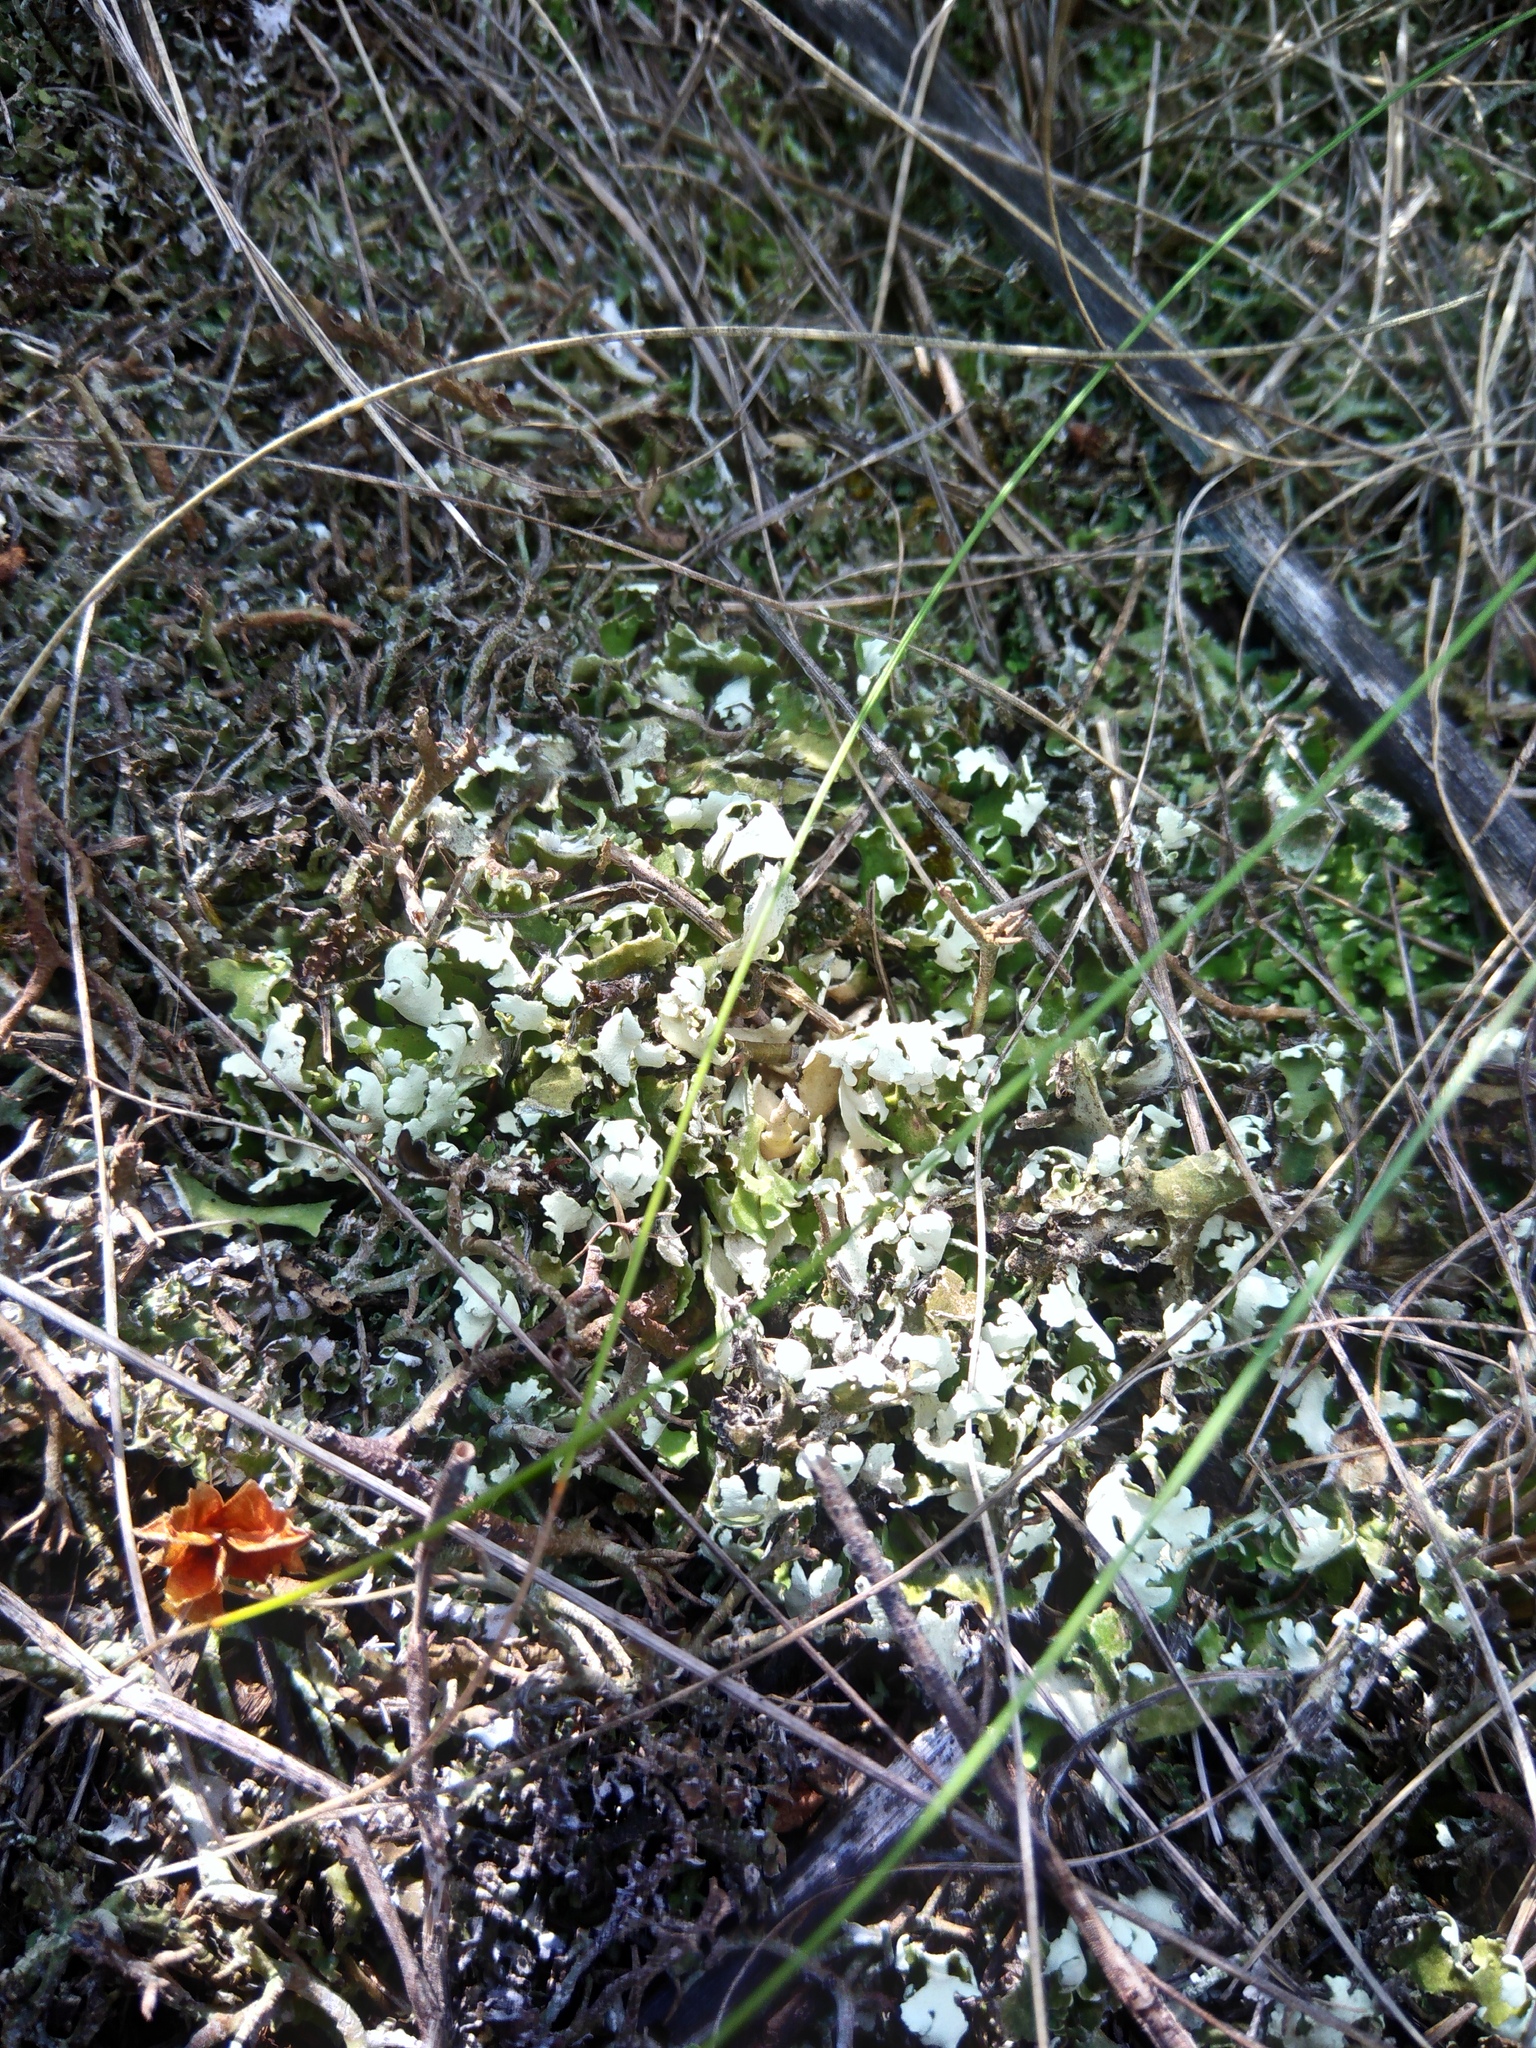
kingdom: Fungi
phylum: Ascomycota
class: Lecanoromycetes
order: Lecanorales
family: Cladoniaceae
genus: Cladonia
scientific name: Cladonia foliacea
